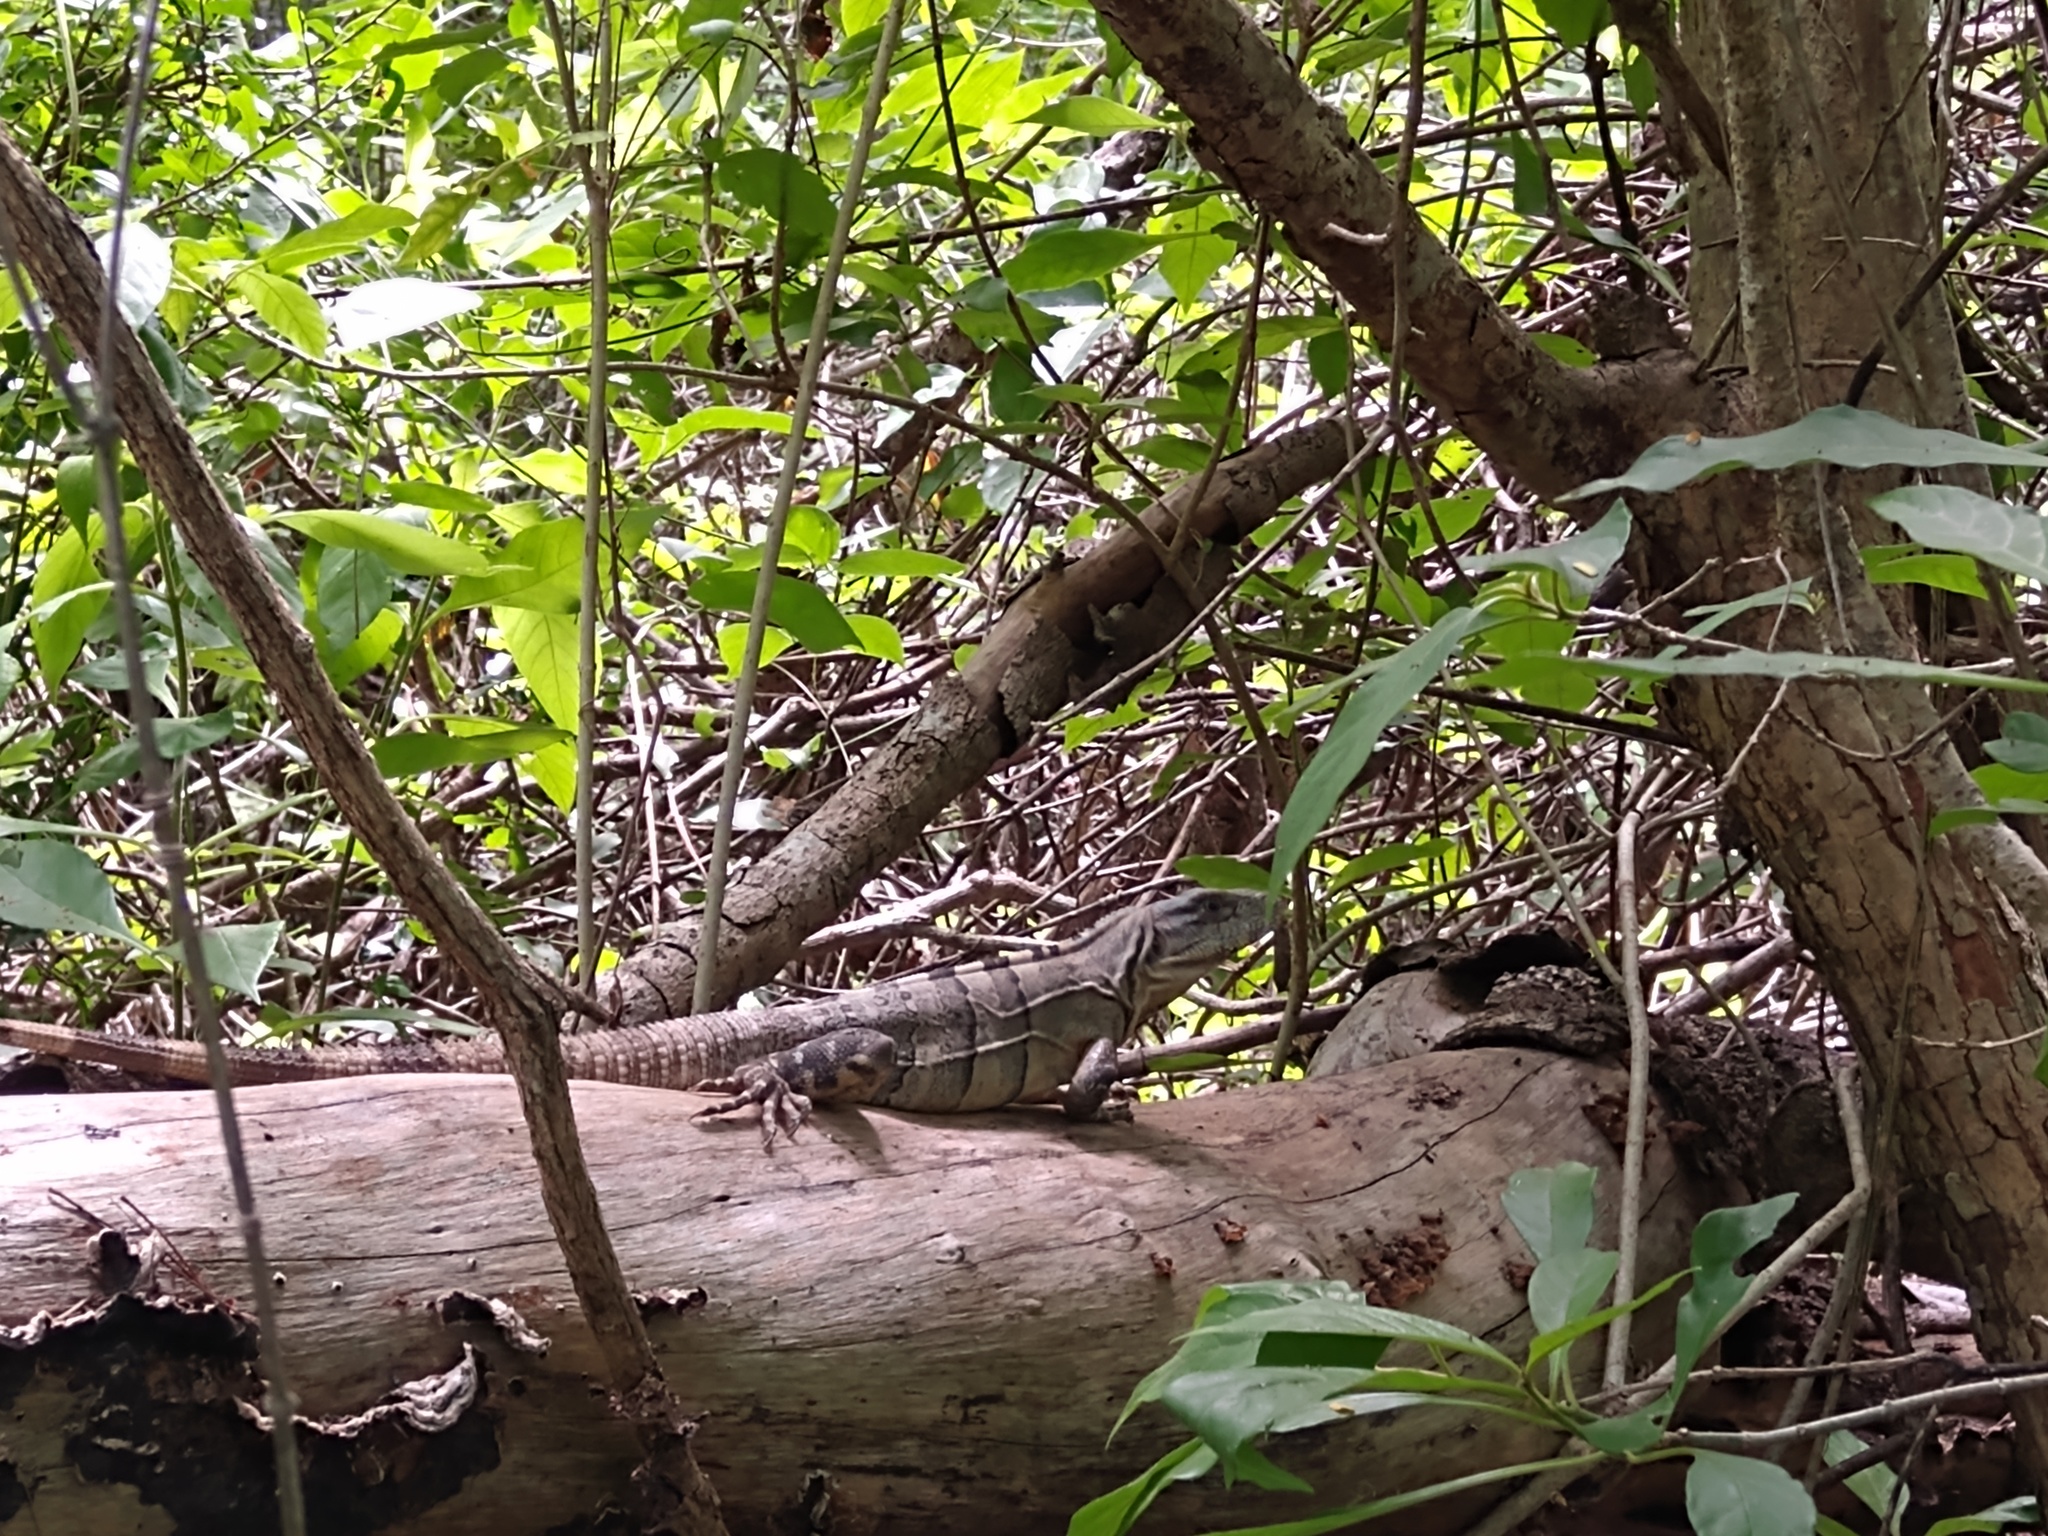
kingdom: Animalia
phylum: Chordata
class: Squamata
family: Iguanidae
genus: Ctenosaura
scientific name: Ctenosaura similis
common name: Black spiny-tailed iguana
